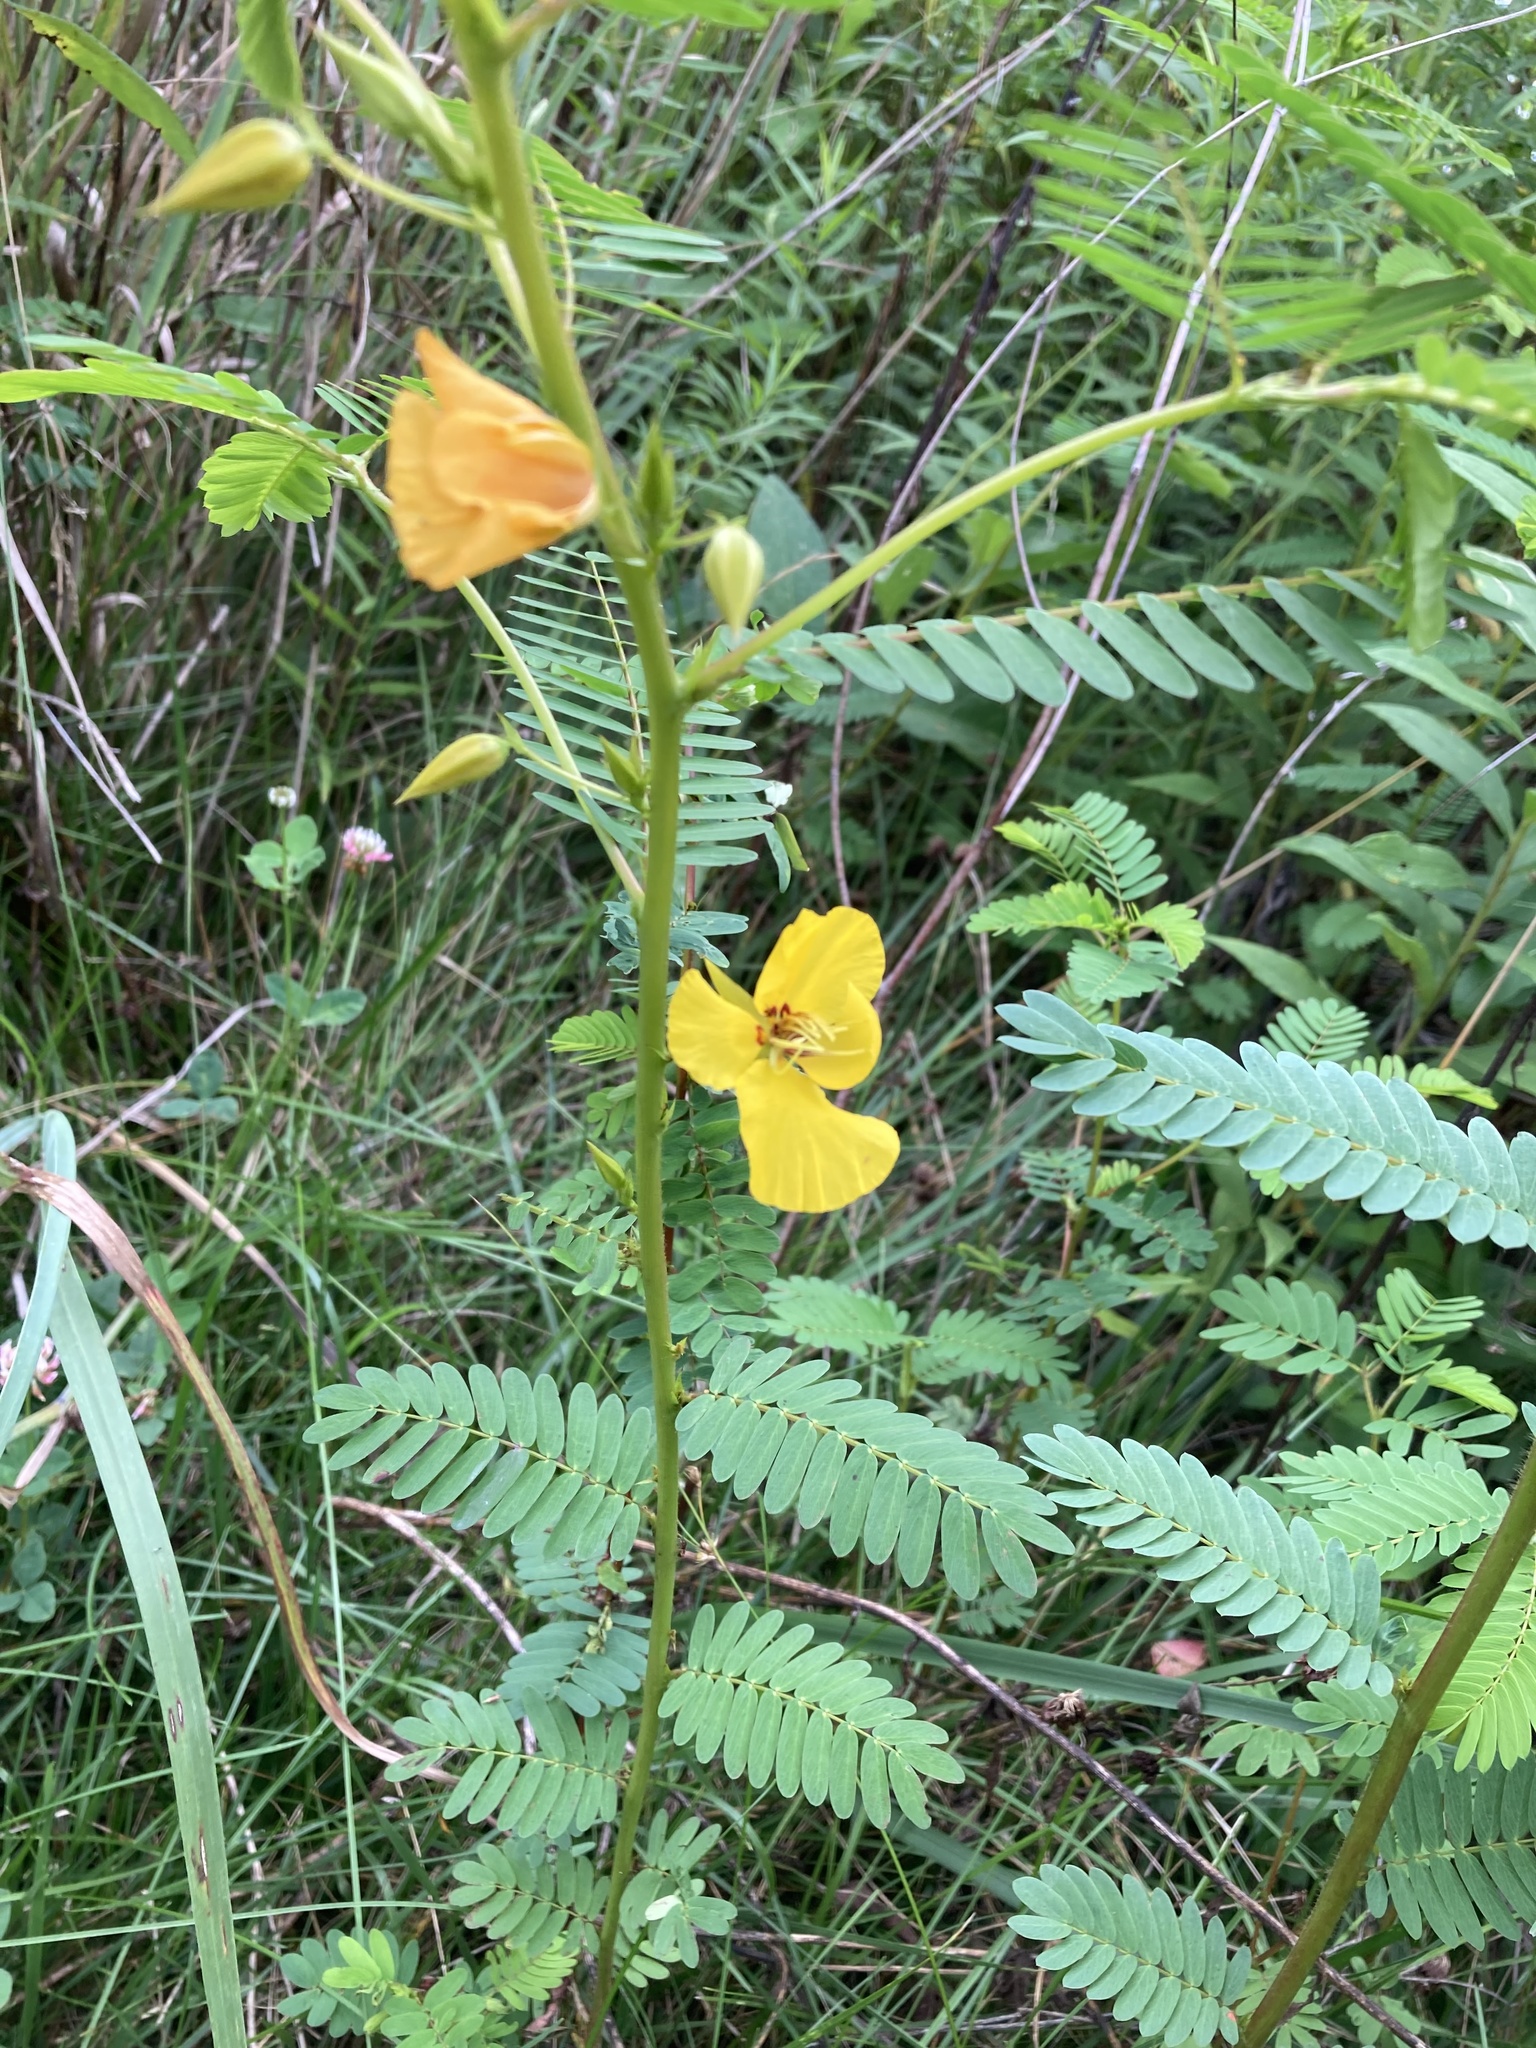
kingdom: Plantae
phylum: Tracheophyta
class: Magnoliopsida
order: Fabales
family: Fabaceae
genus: Chamaecrista
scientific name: Chamaecrista fasciculata
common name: Golden cassia
